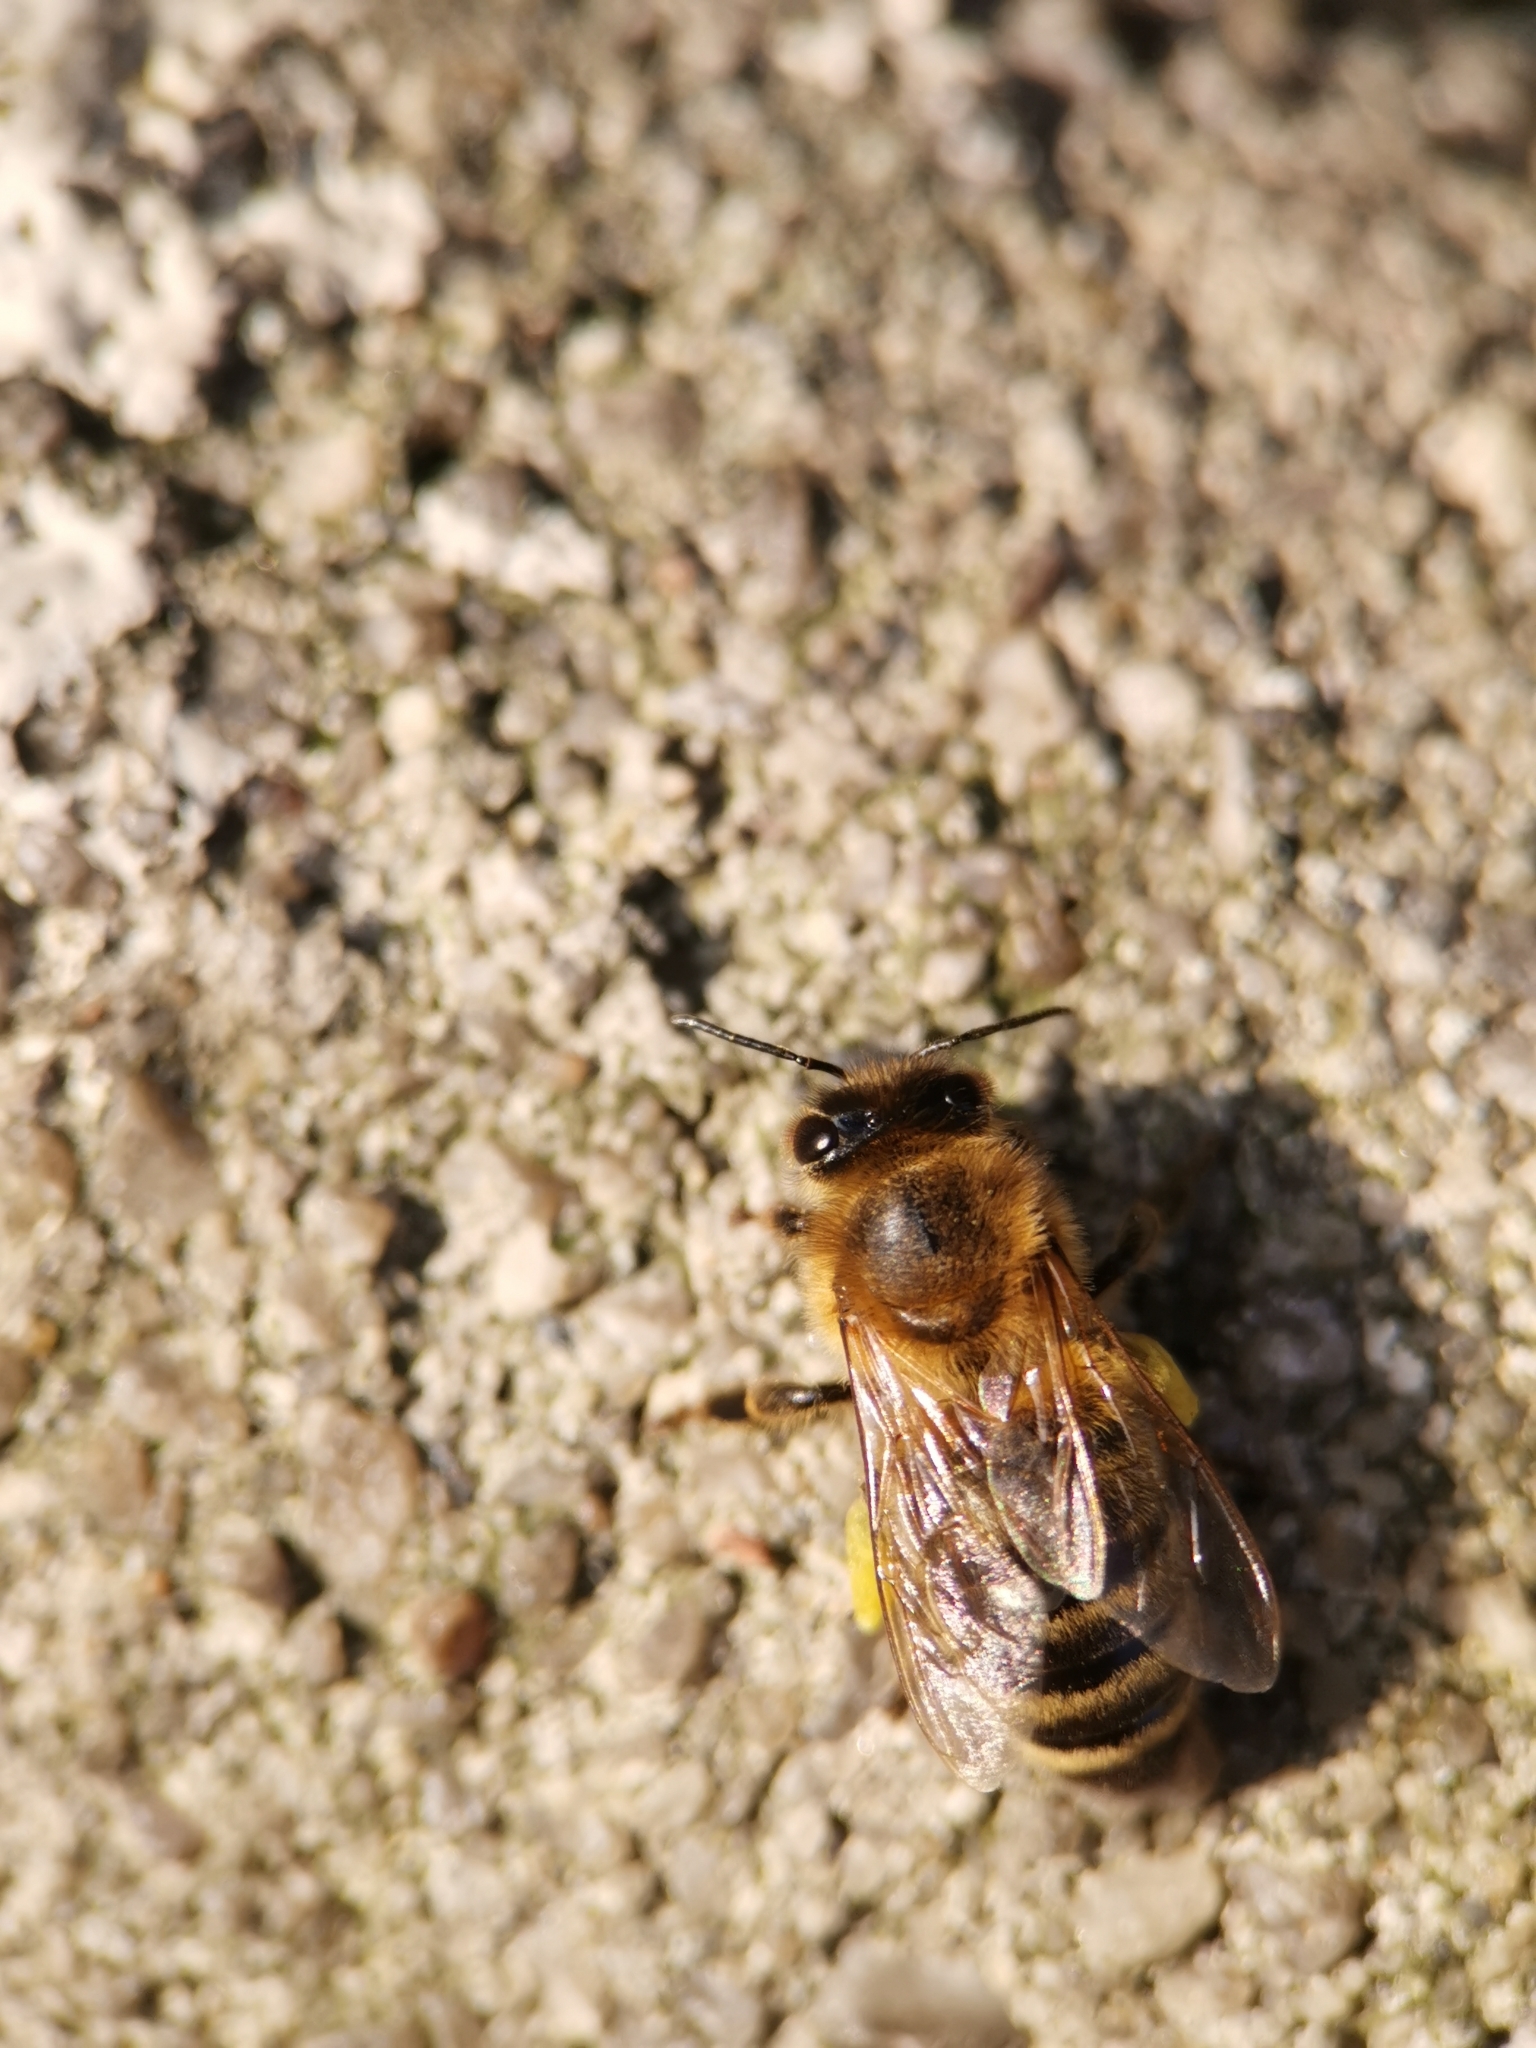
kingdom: Animalia
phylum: Arthropoda
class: Insecta
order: Hymenoptera
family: Apidae
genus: Apis
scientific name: Apis mellifera
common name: Honey bee
